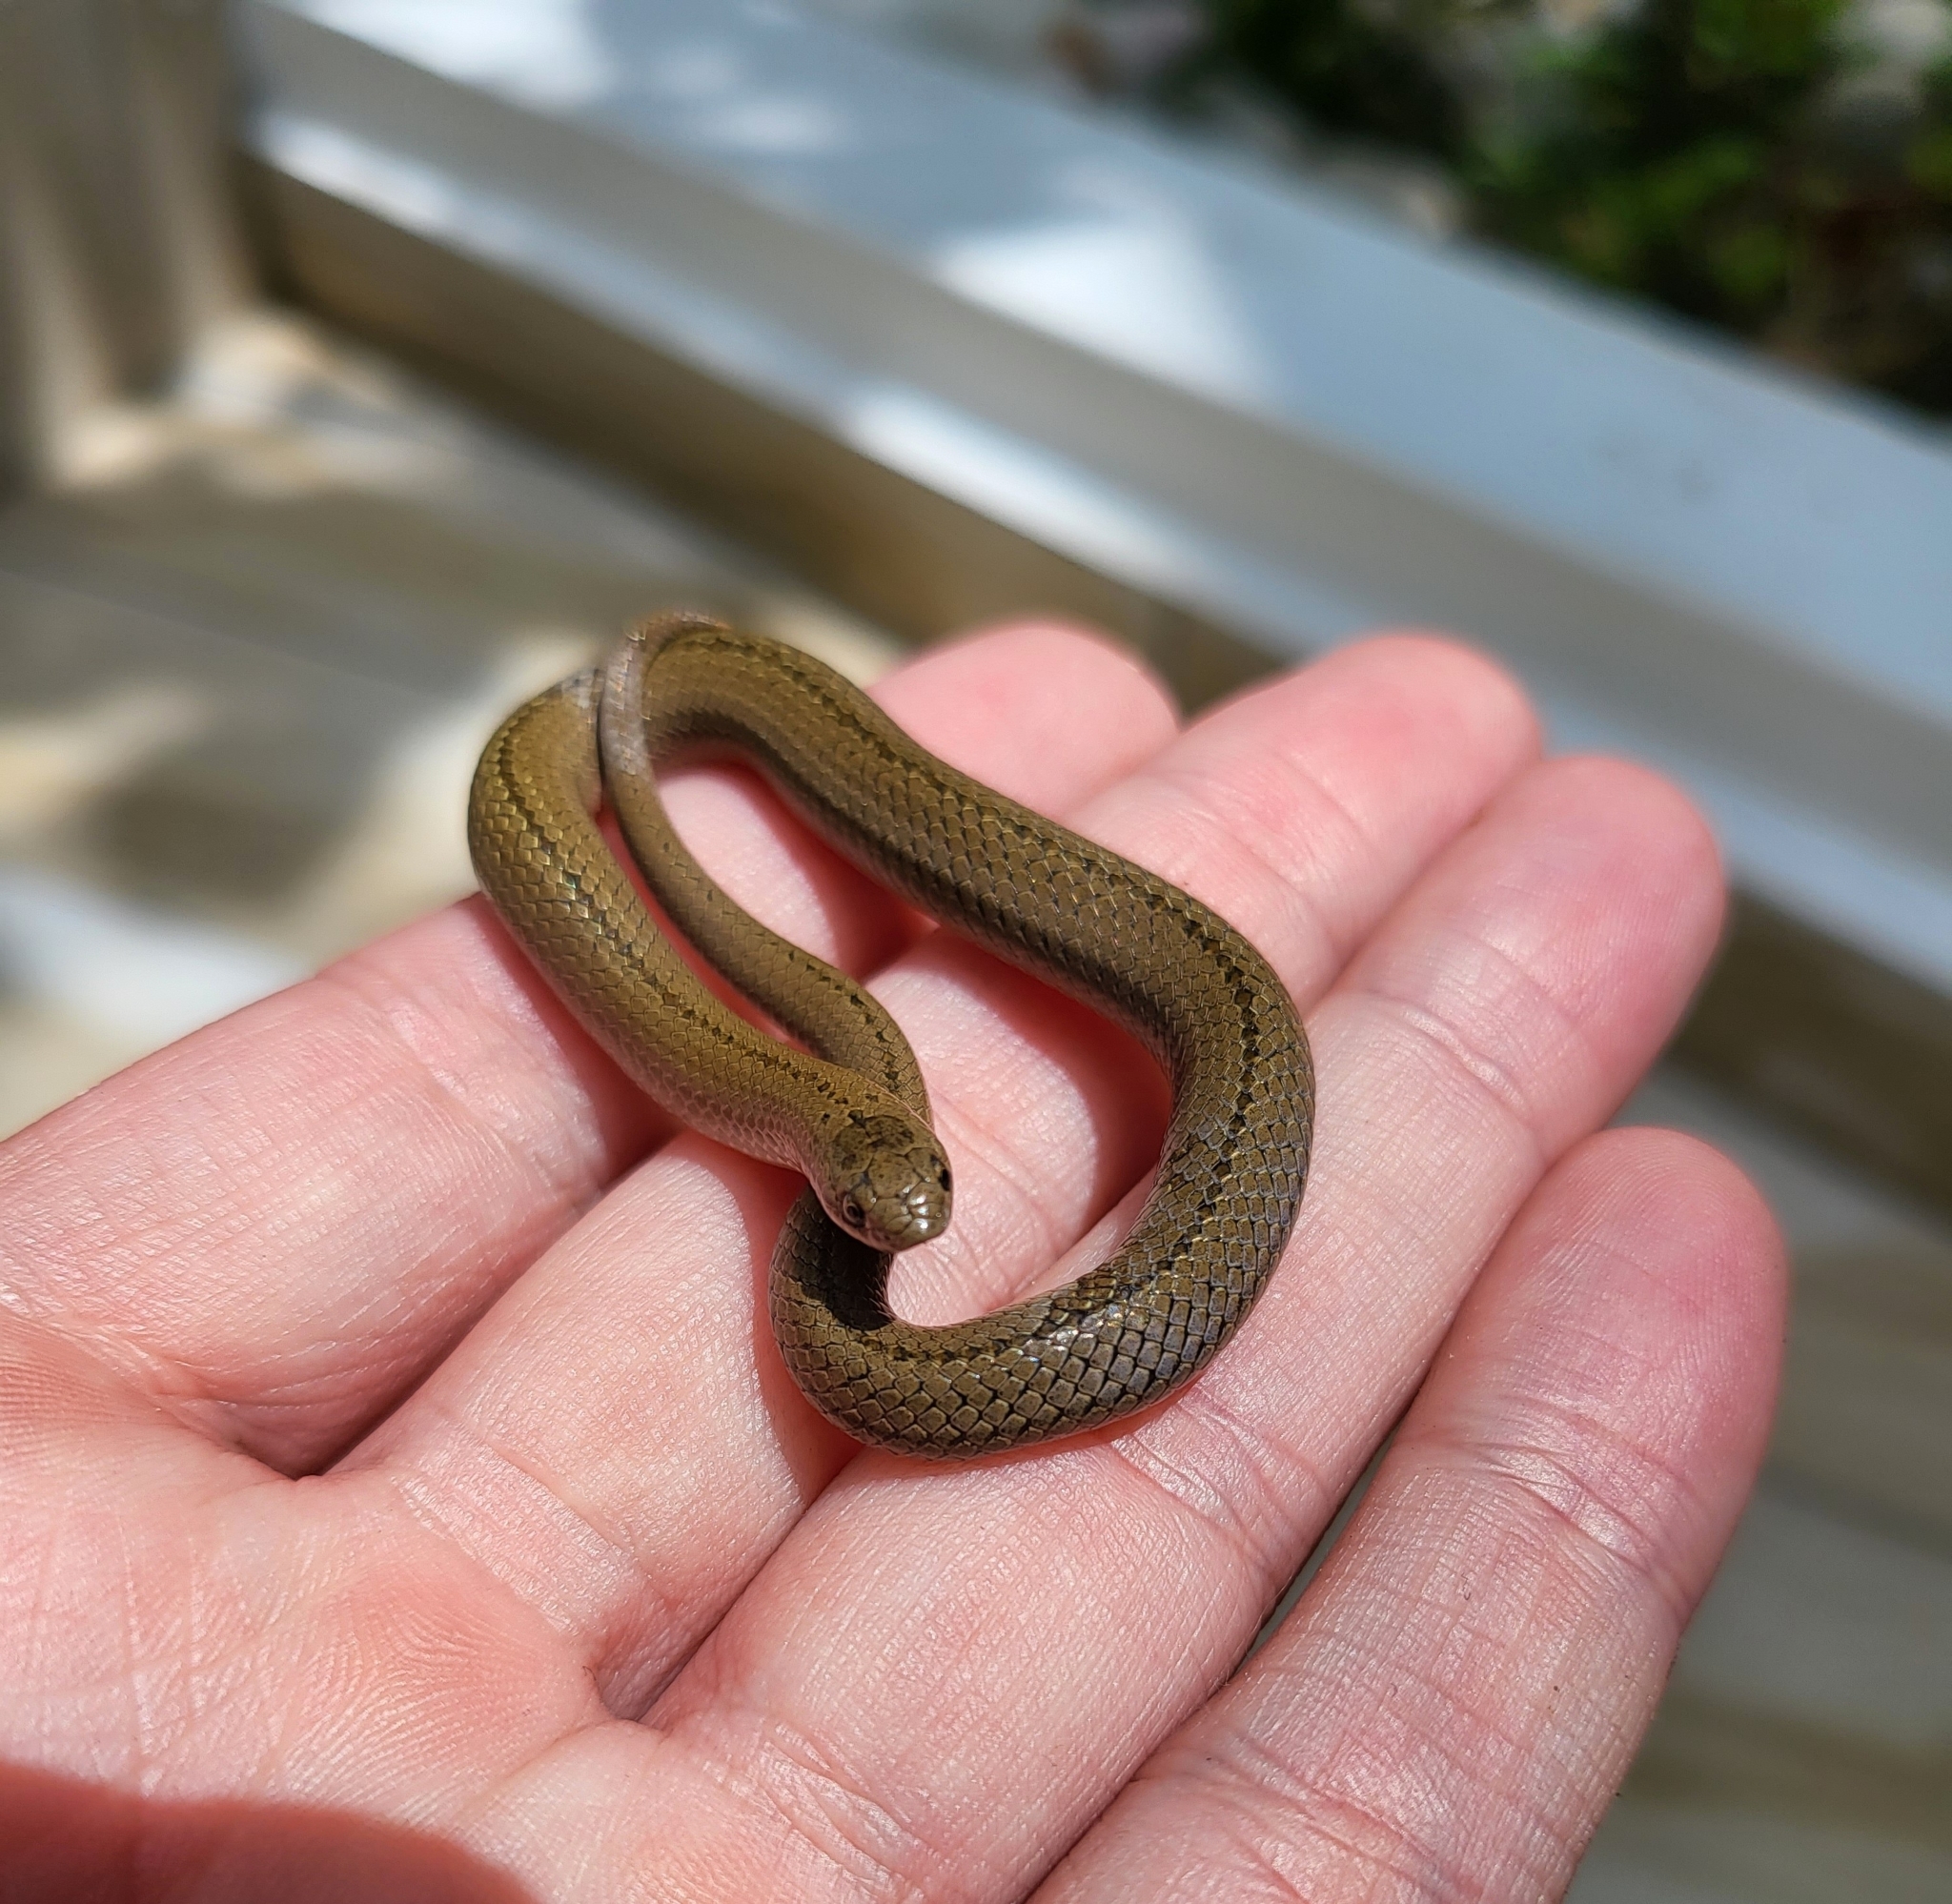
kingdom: Animalia
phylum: Chordata
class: Squamata
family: Colubridae
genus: Conopsis
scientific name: Conopsis lineata
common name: Lined tolucan earthsnake
